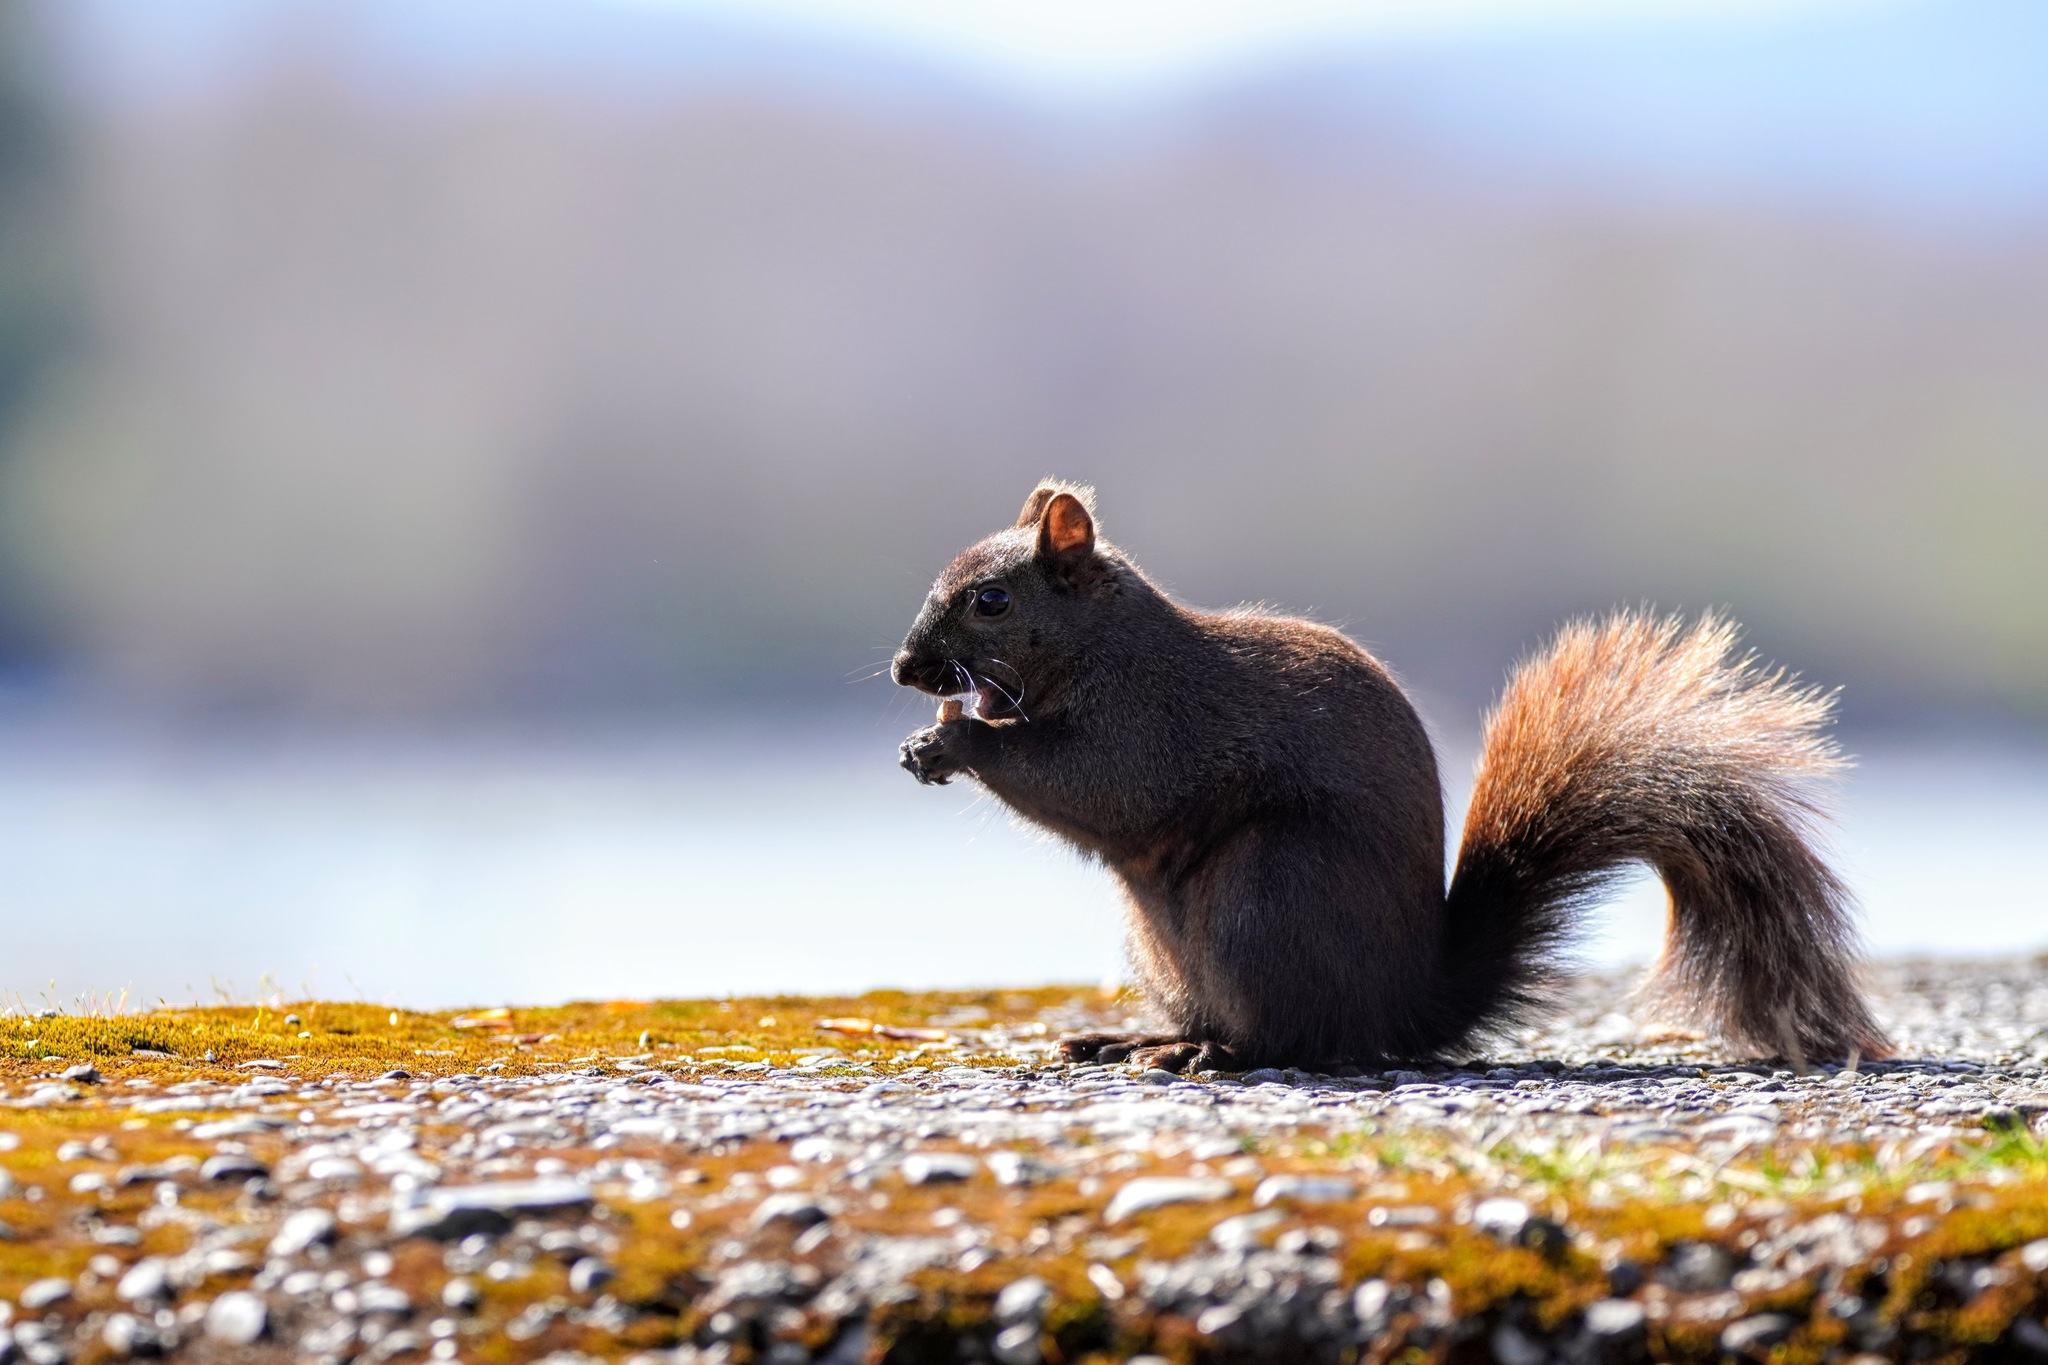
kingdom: Animalia
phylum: Chordata
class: Mammalia
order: Rodentia
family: Sciuridae
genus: Sciurus
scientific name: Sciurus carolinensis
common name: Eastern gray squirrel
